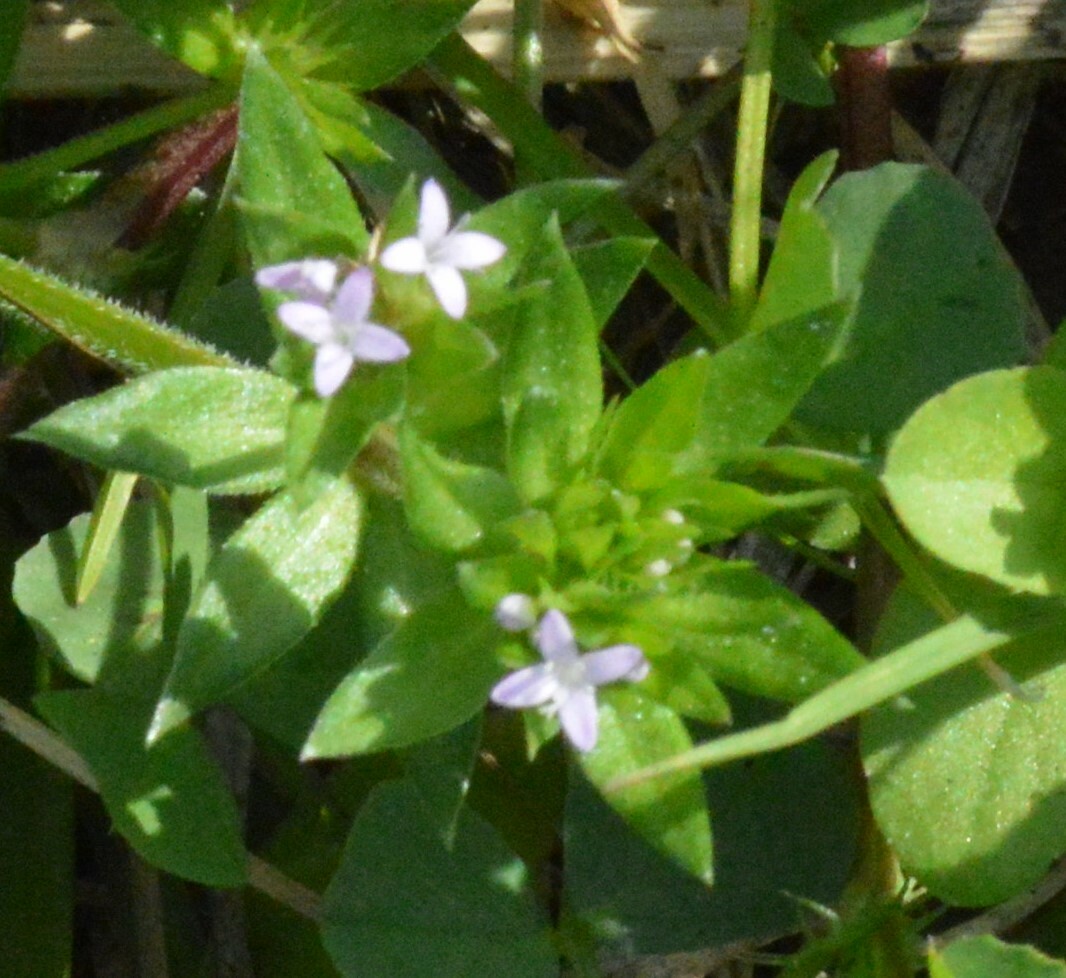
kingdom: Plantae
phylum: Tracheophyta
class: Magnoliopsida
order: Gentianales
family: Rubiaceae
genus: Sherardia
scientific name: Sherardia arvensis
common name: Field madder
